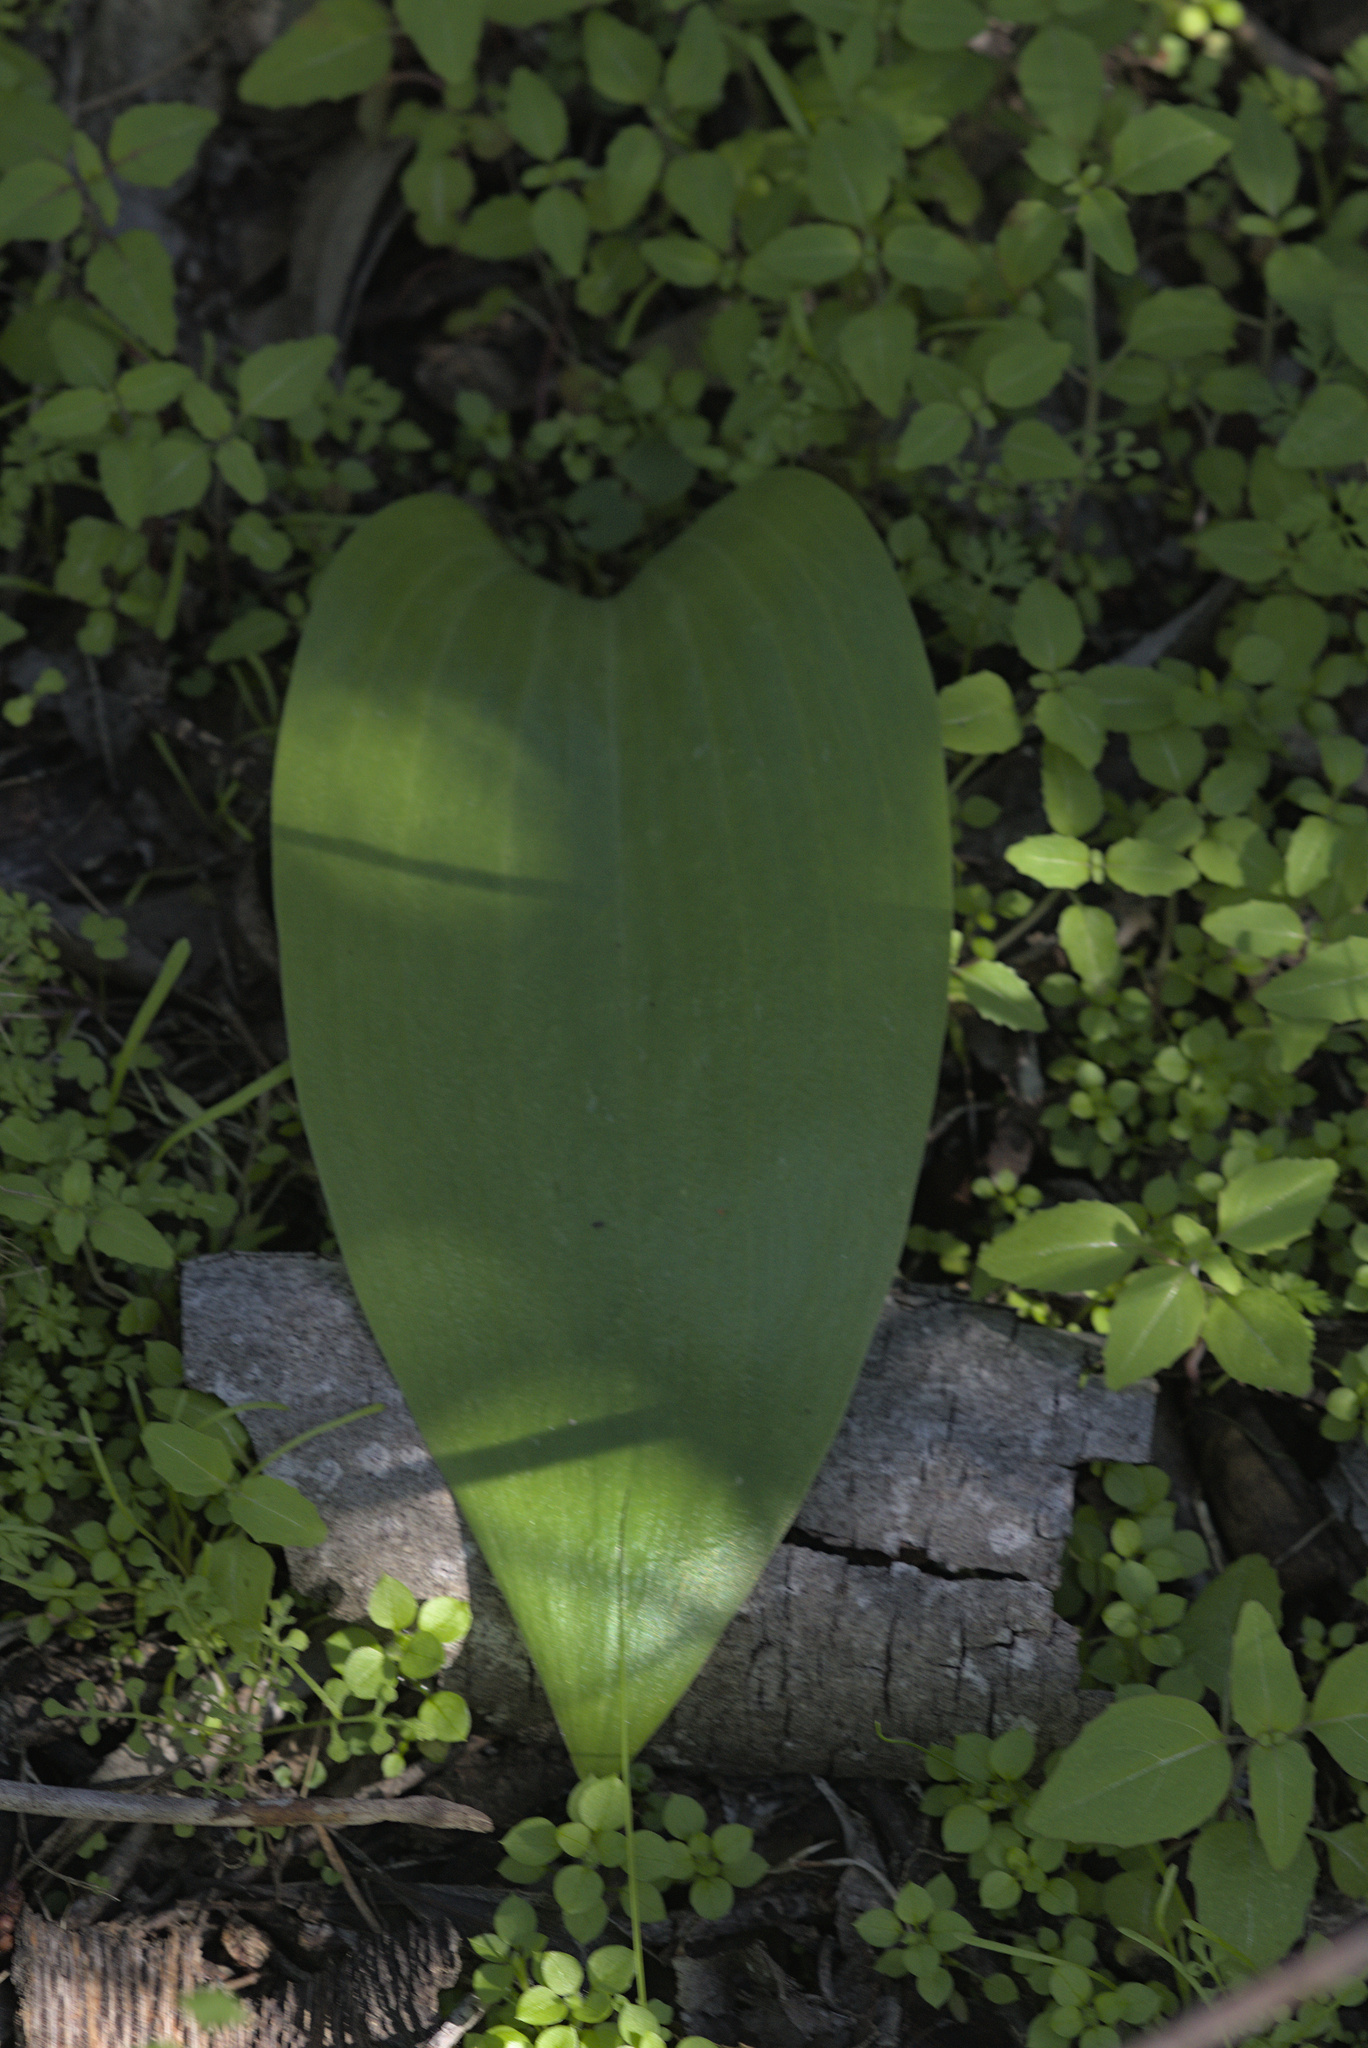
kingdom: Plantae
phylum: Tracheophyta
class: Liliopsida
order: Liliales
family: Liliaceae
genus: Fritillaria
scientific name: Fritillaria affinis
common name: Ojai fritillary
